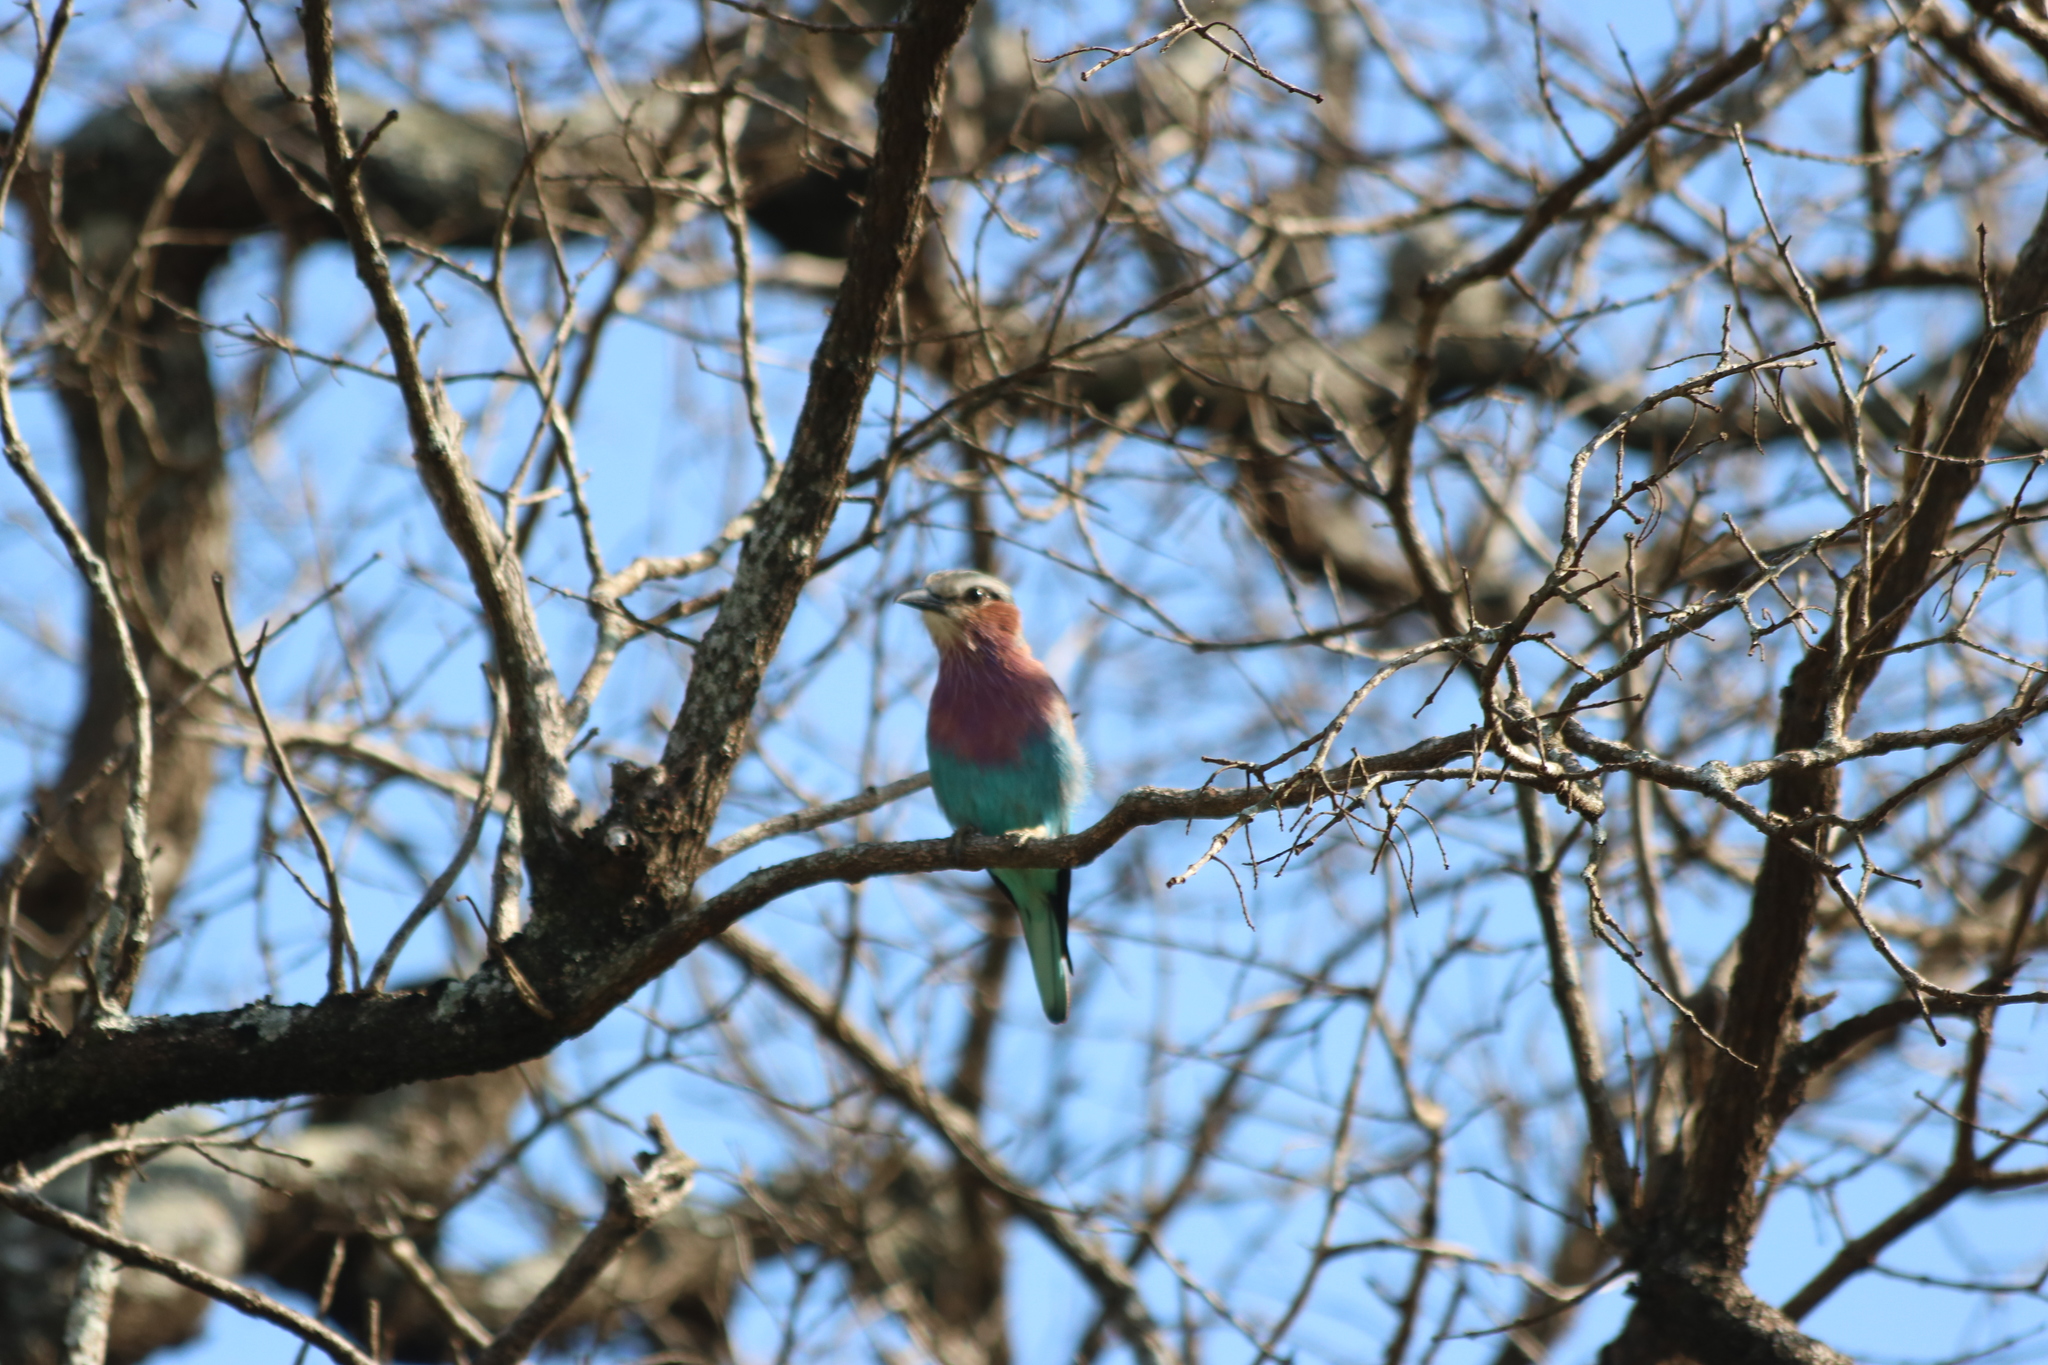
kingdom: Animalia
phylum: Chordata
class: Aves
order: Coraciiformes
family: Coraciidae
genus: Coracias
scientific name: Coracias caudatus
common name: Lilac-breasted roller
